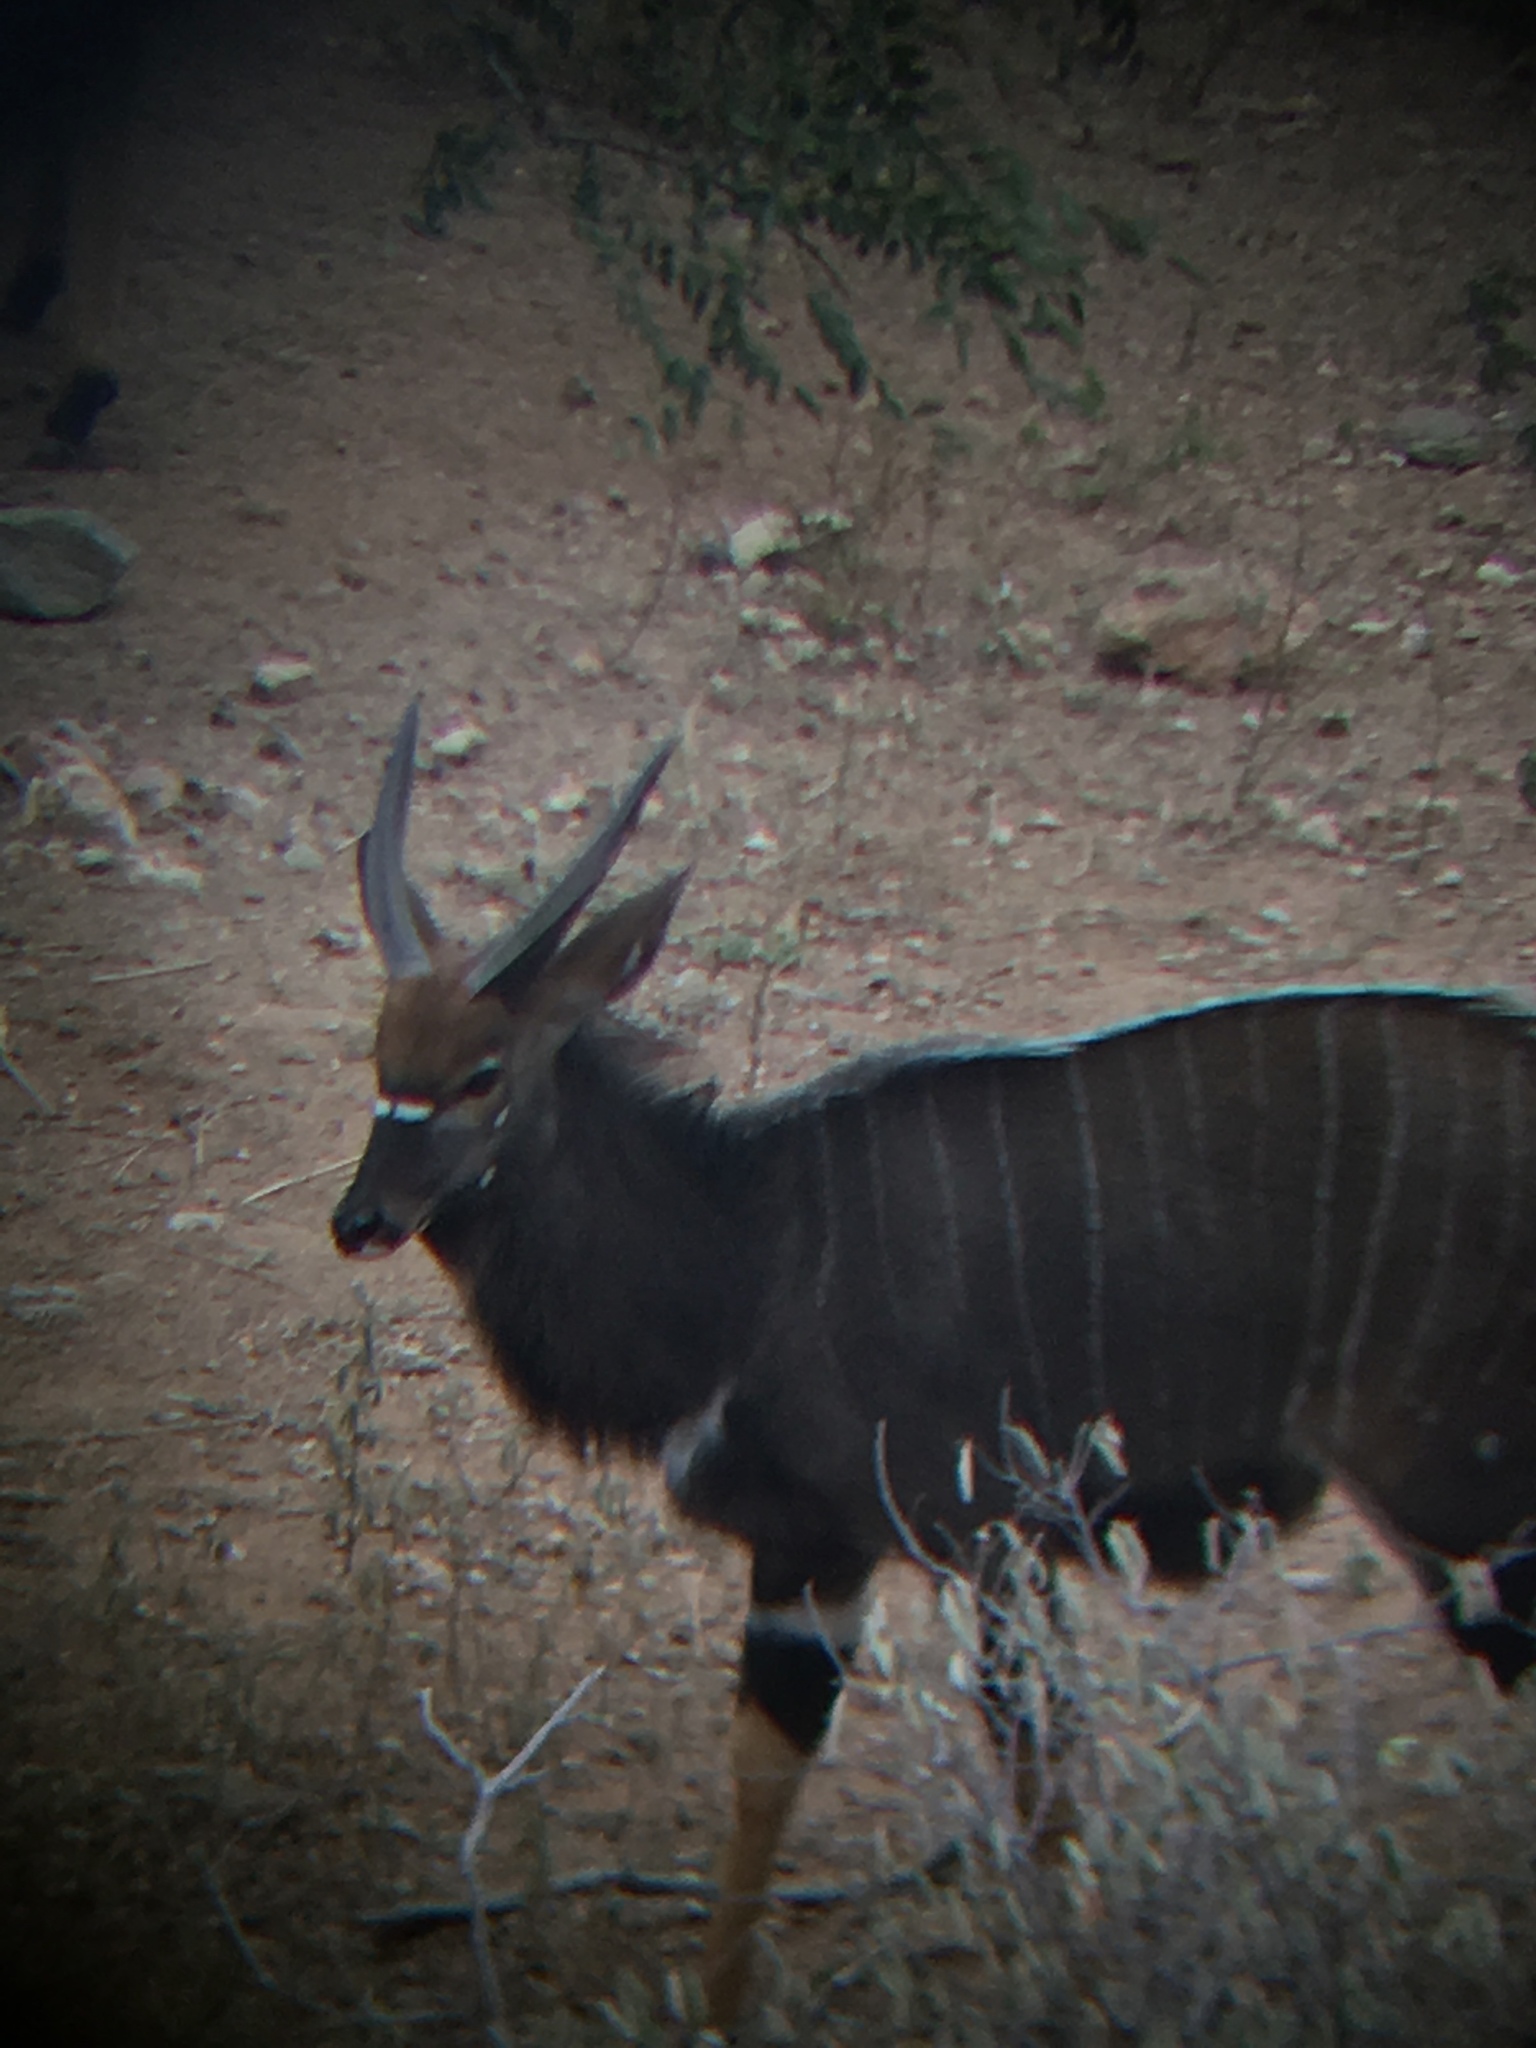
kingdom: Animalia
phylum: Chordata
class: Mammalia
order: Artiodactyla
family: Bovidae
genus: Tragelaphus
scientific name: Tragelaphus angasii
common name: Nyala
